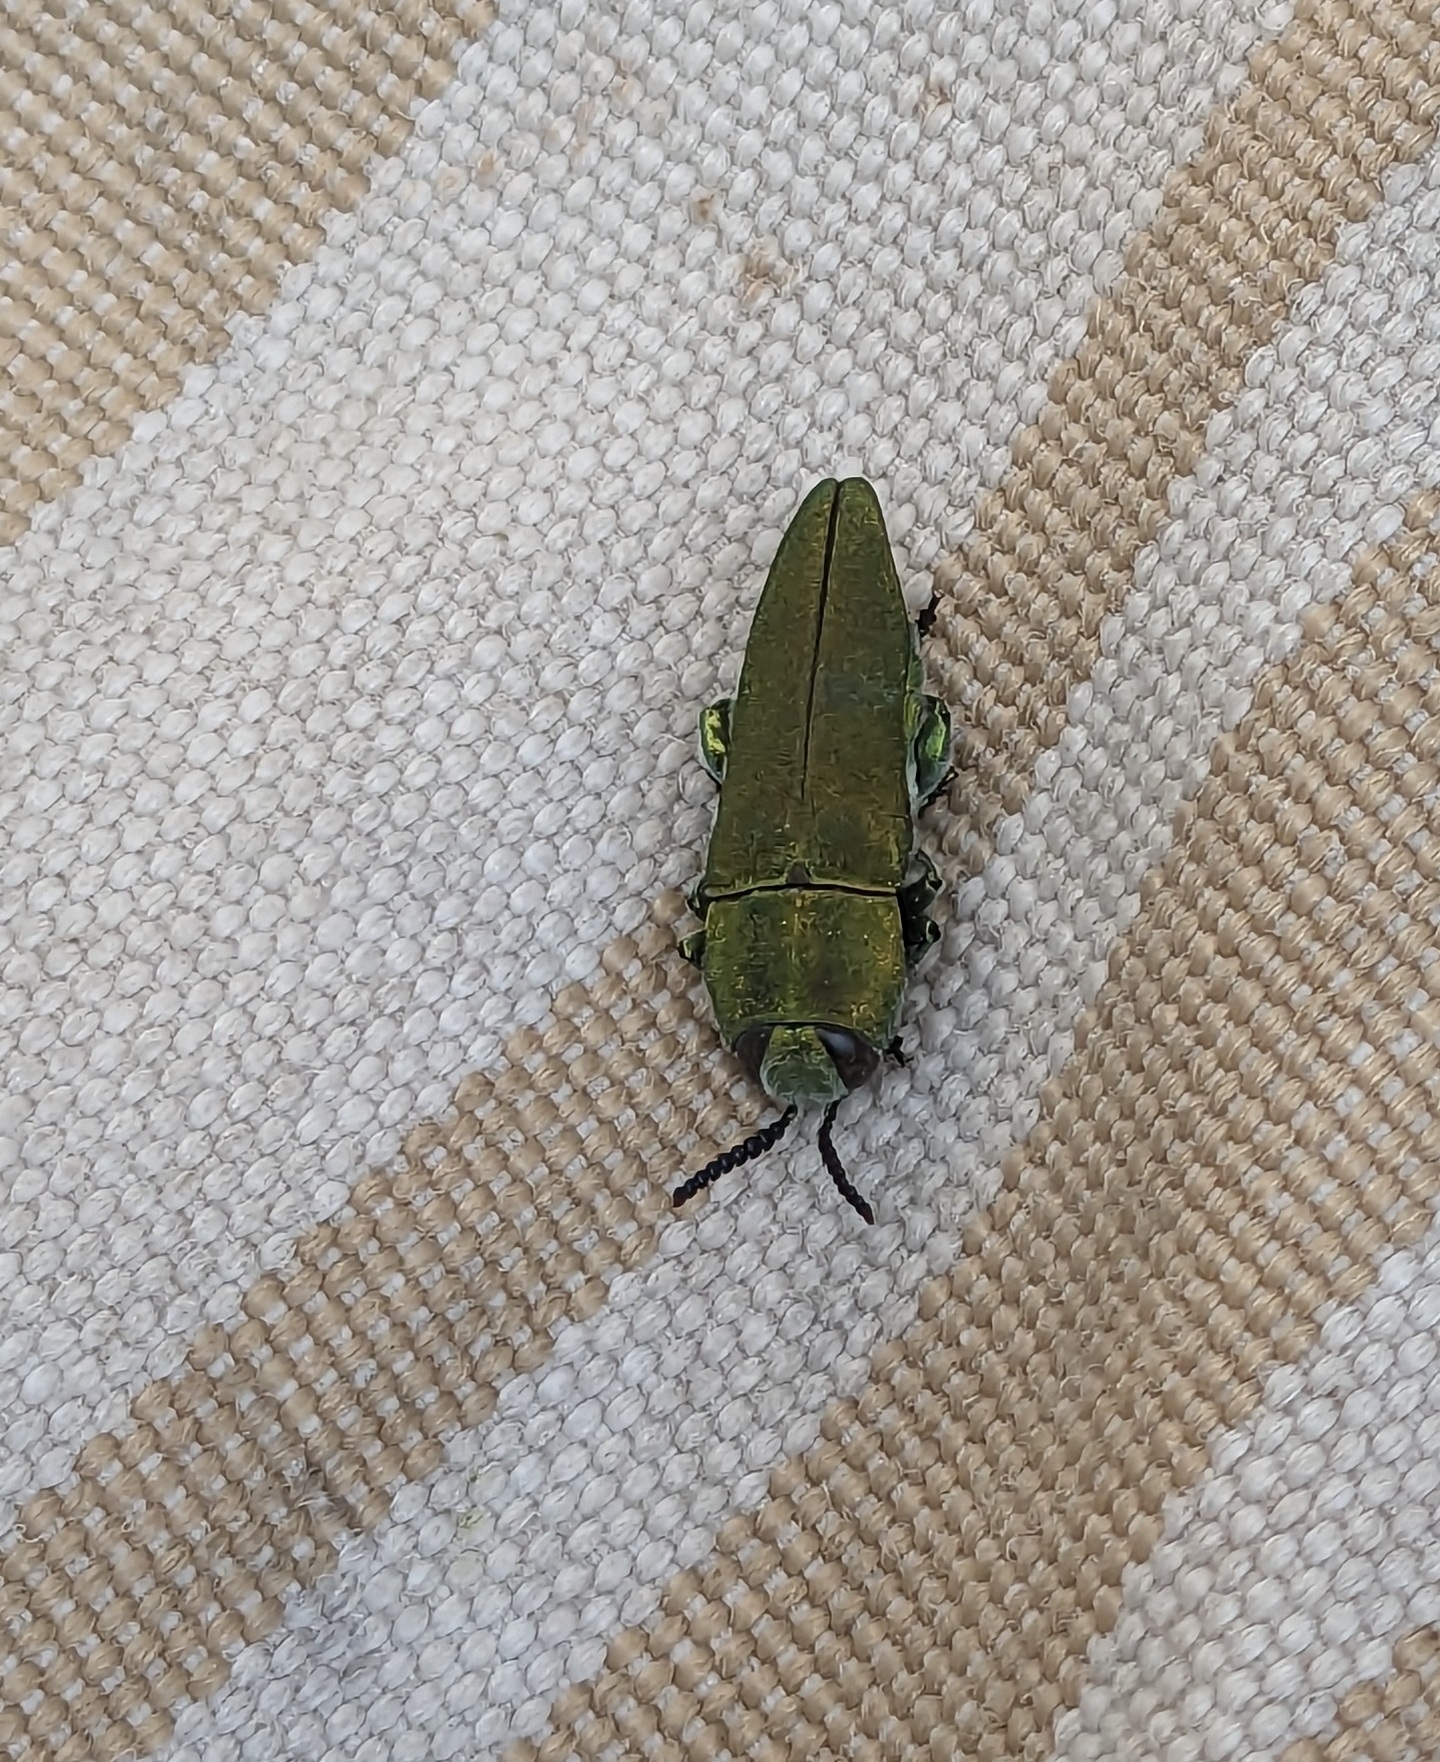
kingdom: Animalia
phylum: Arthropoda
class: Insecta
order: Coleoptera
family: Buprestidae
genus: Anthaxia
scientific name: Anthaxia hungarica
